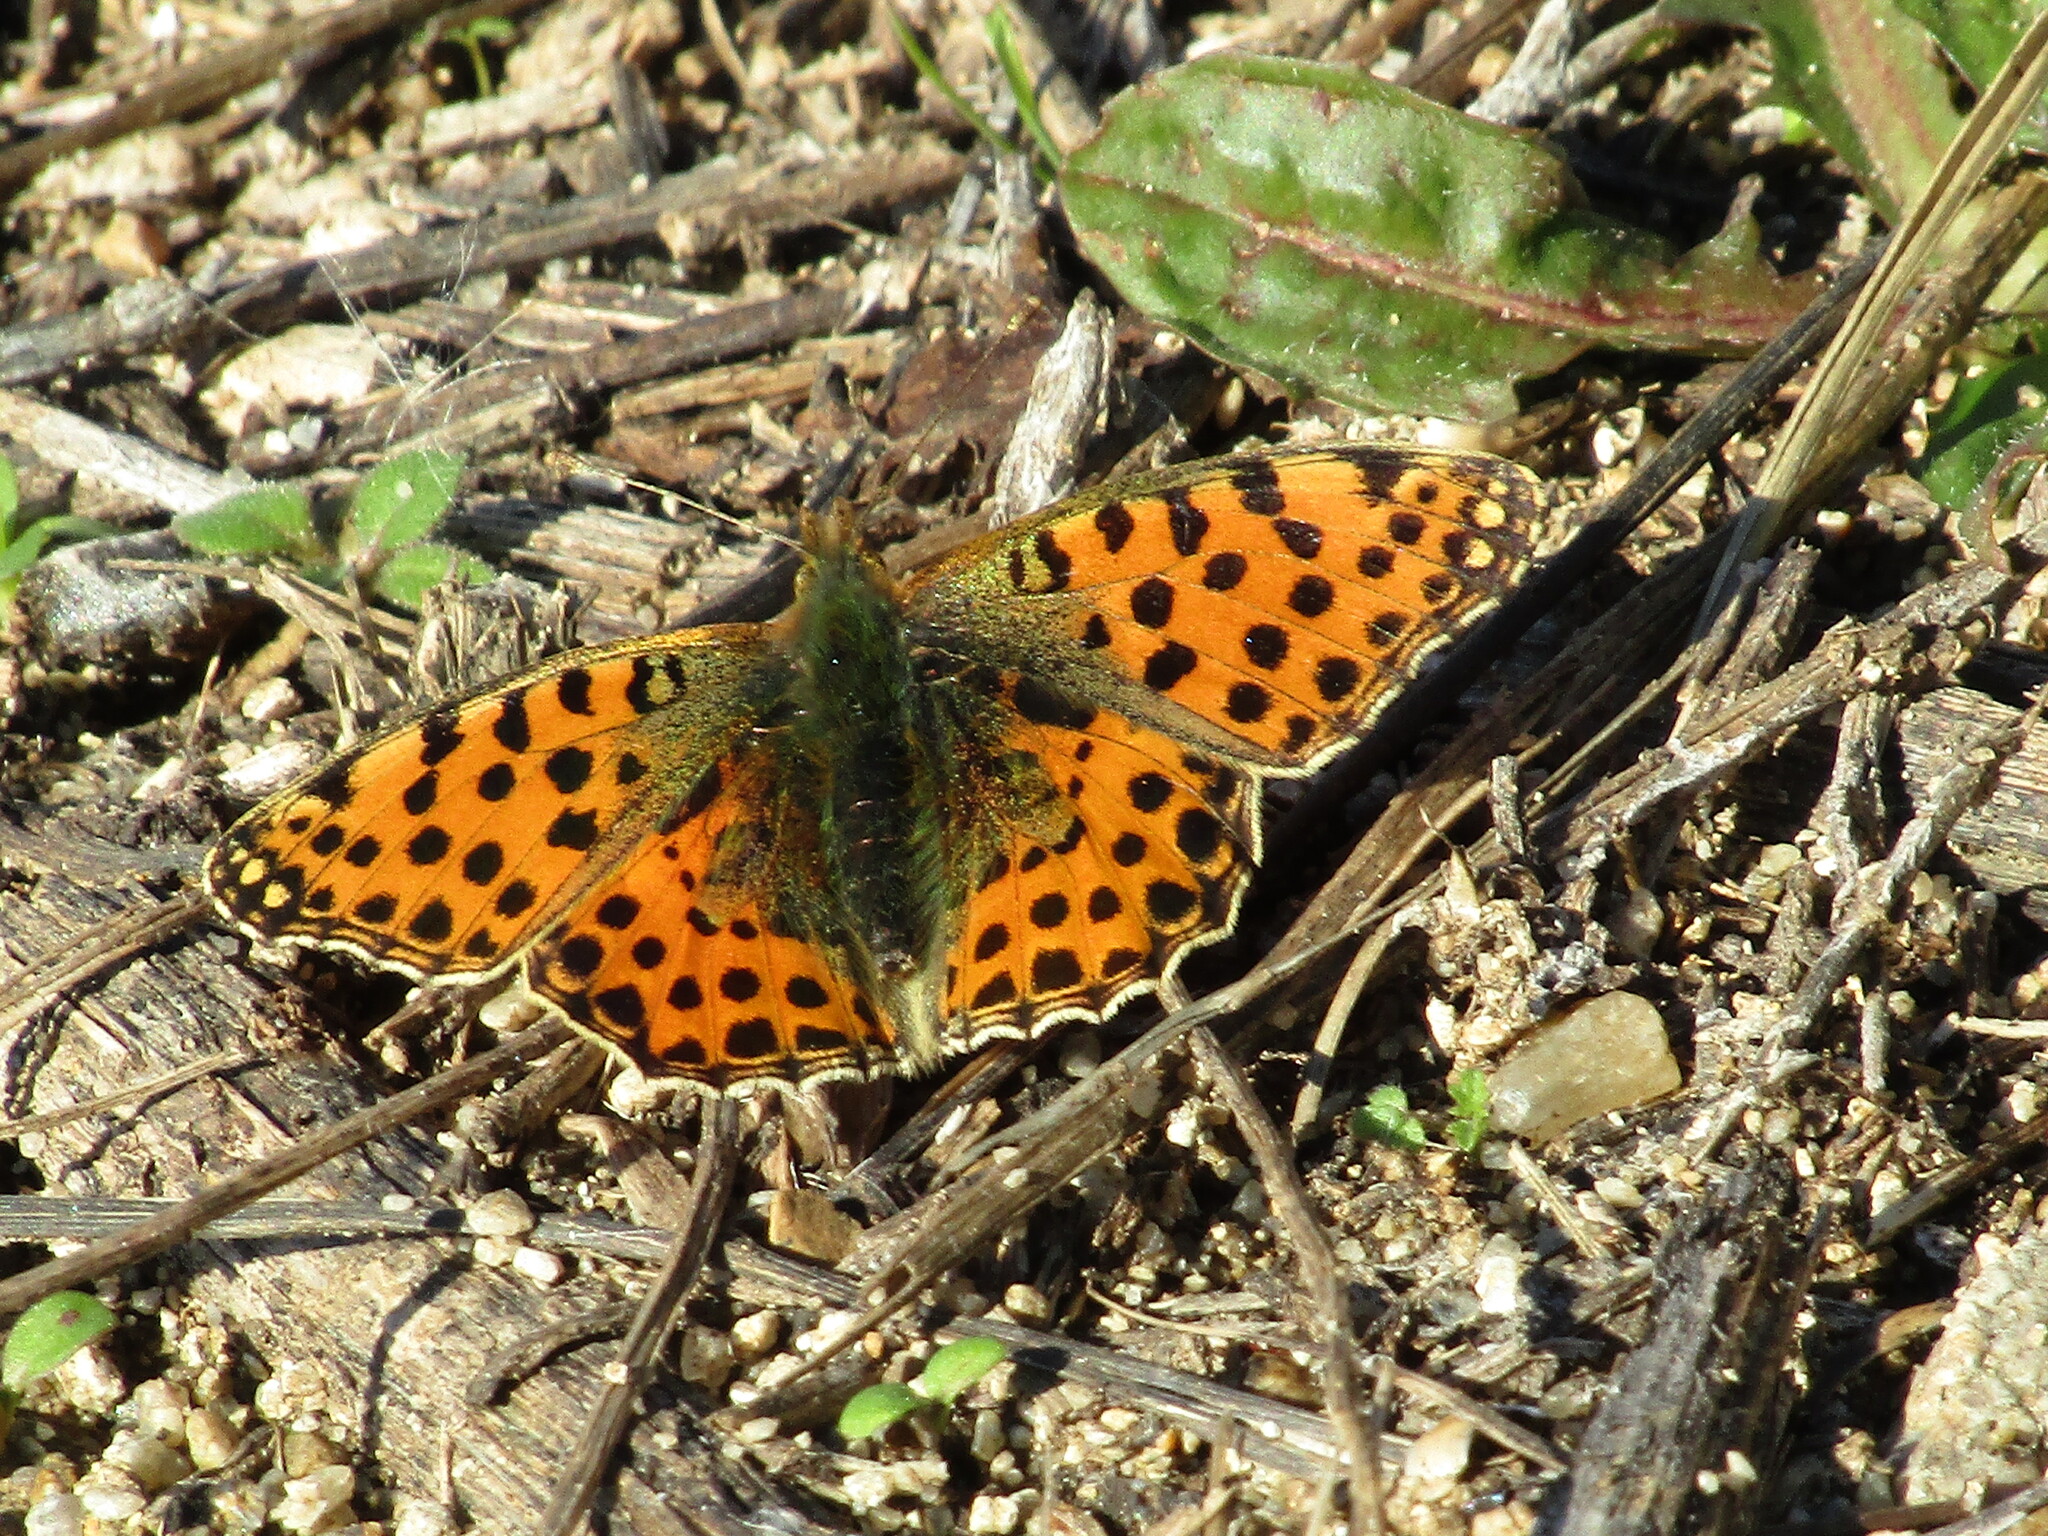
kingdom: Animalia
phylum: Arthropoda
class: Insecta
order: Lepidoptera
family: Nymphalidae
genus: Issoria
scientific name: Issoria lathonia
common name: Queen of spain fritillary
